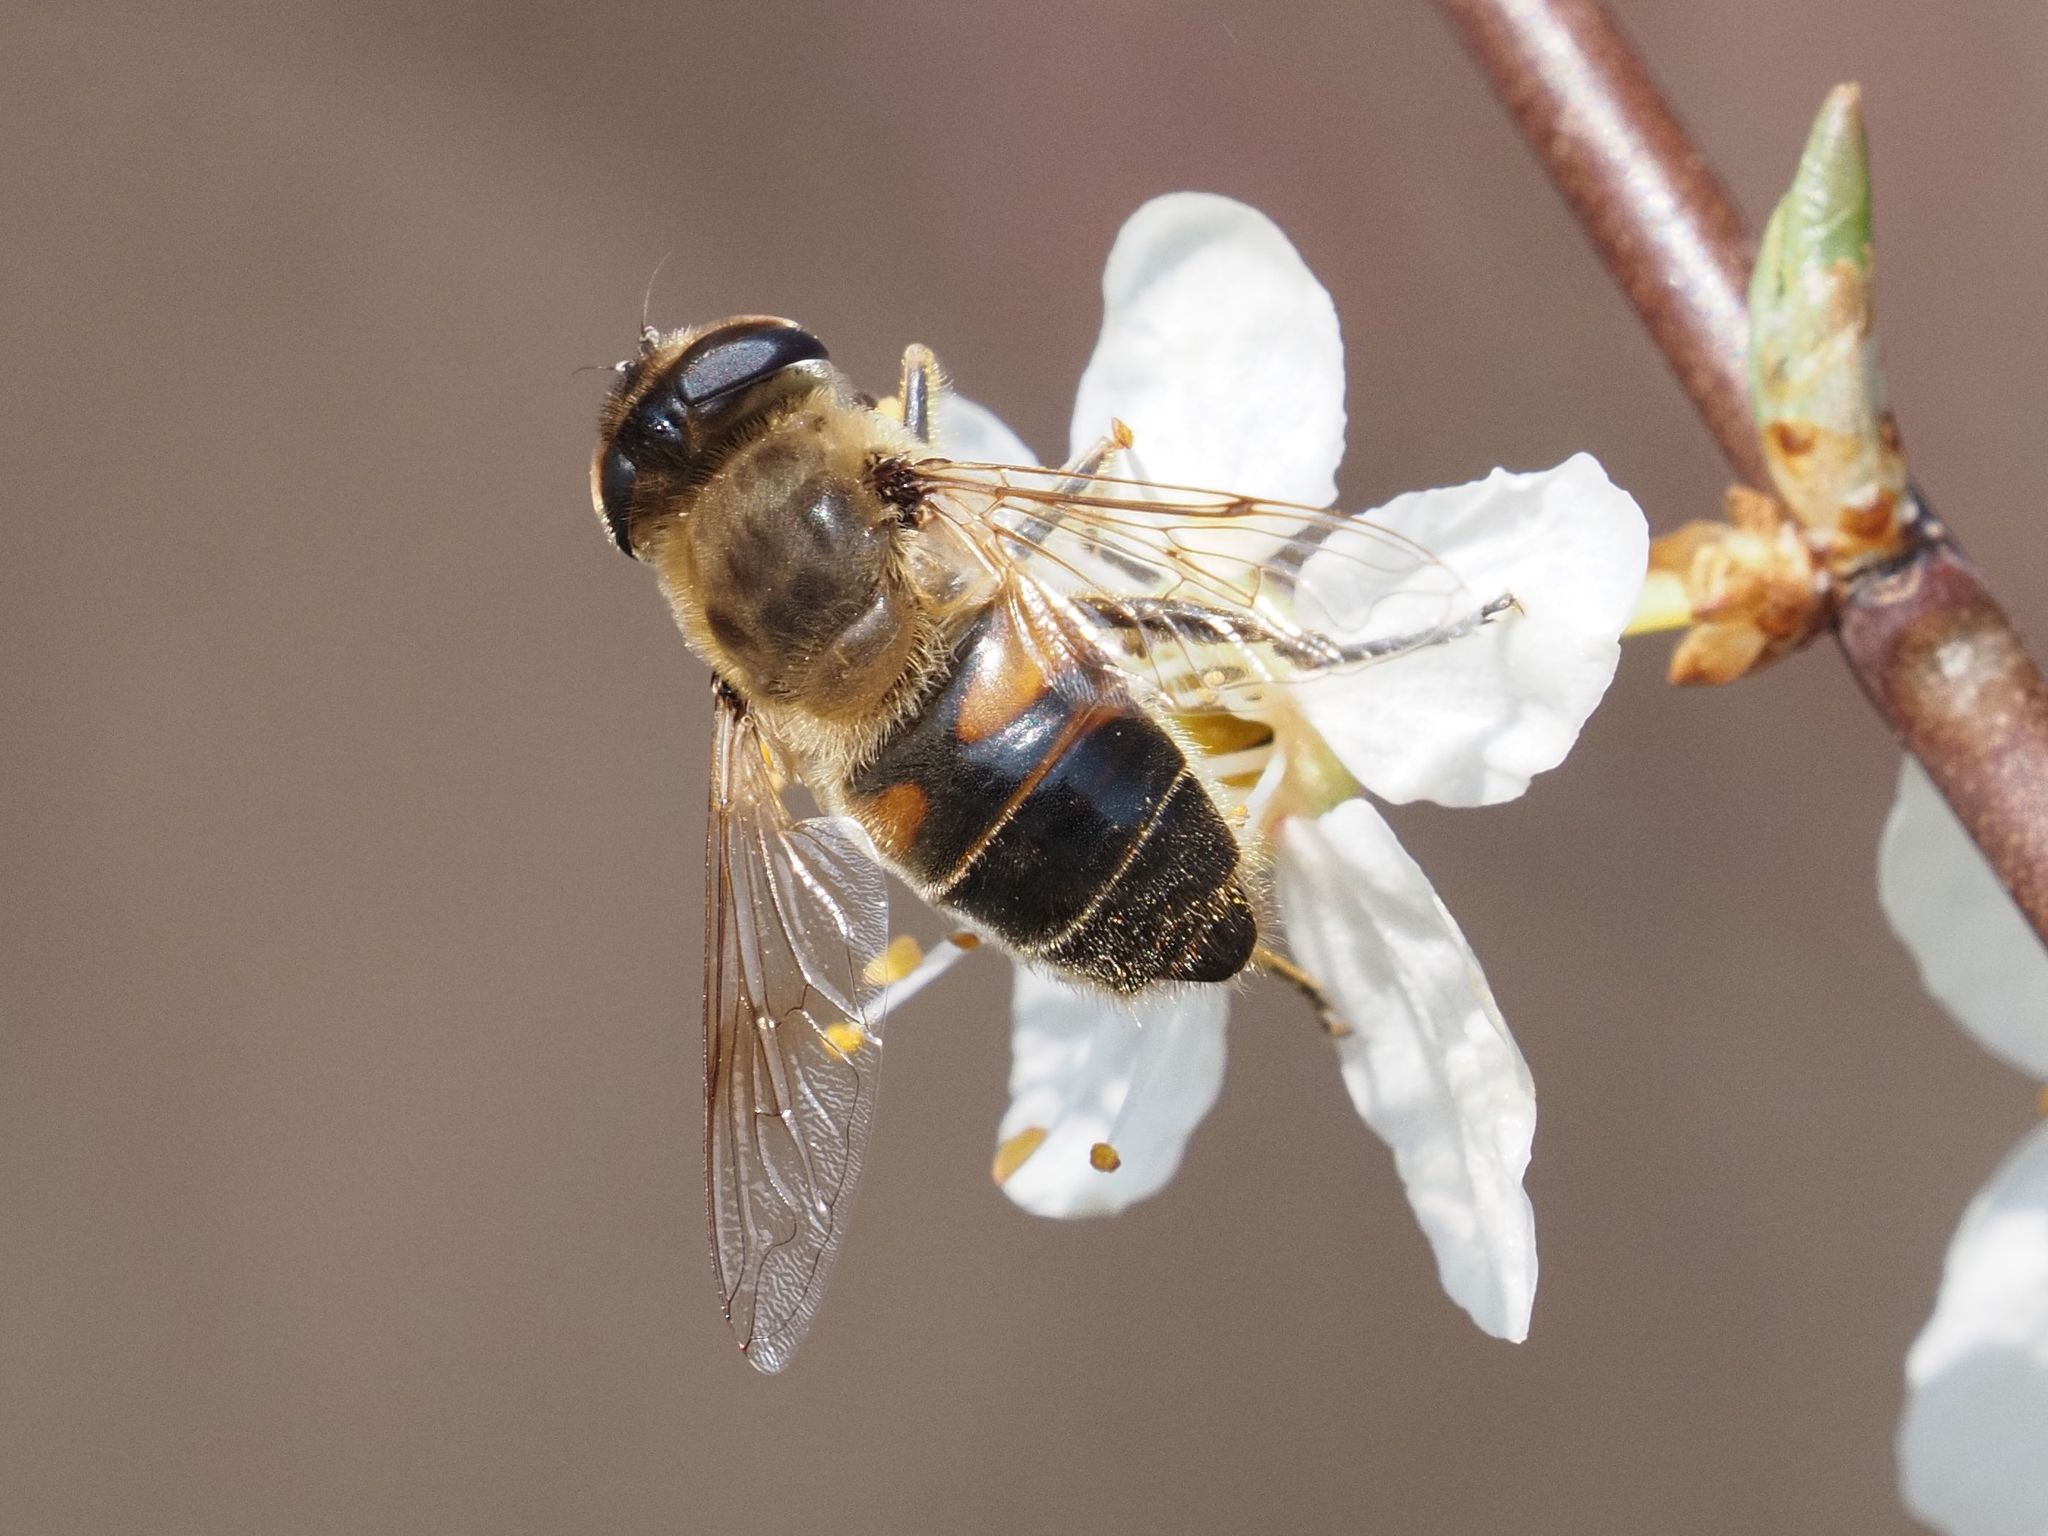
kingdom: Animalia
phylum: Arthropoda
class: Insecta
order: Diptera
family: Syrphidae
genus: Eristalis
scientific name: Eristalis tenax
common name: Drone fly
